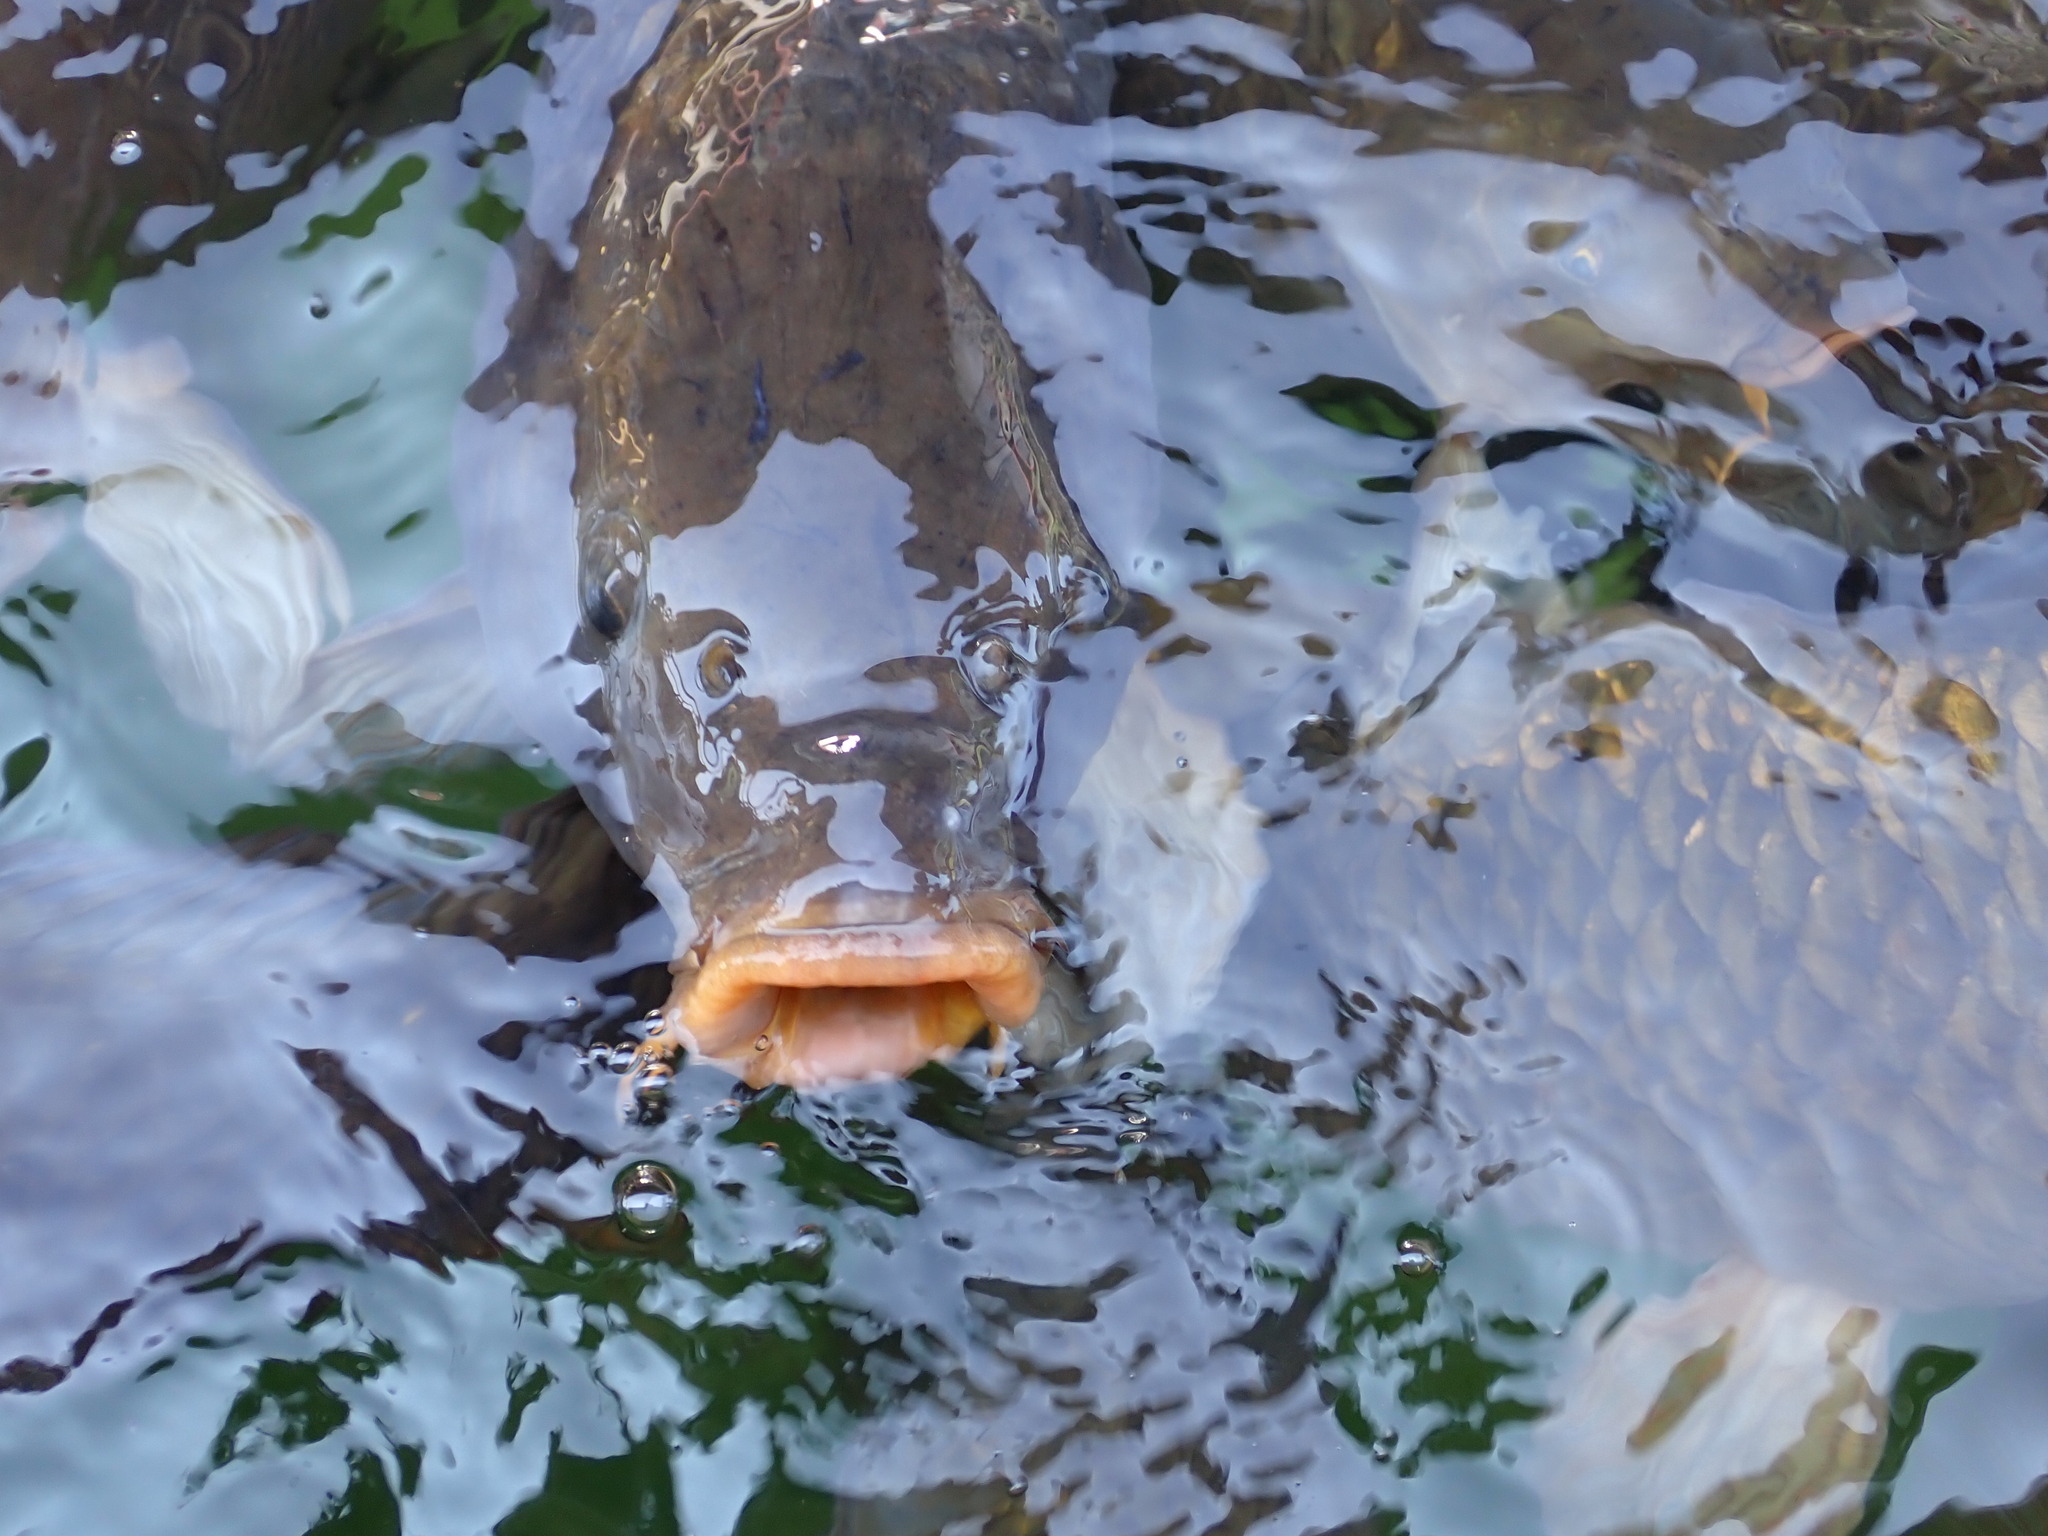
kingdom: Animalia
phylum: Chordata
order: Cypriniformes
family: Cyprinidae
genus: Cyprinus
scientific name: Cyprinus carpio
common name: Common carp
